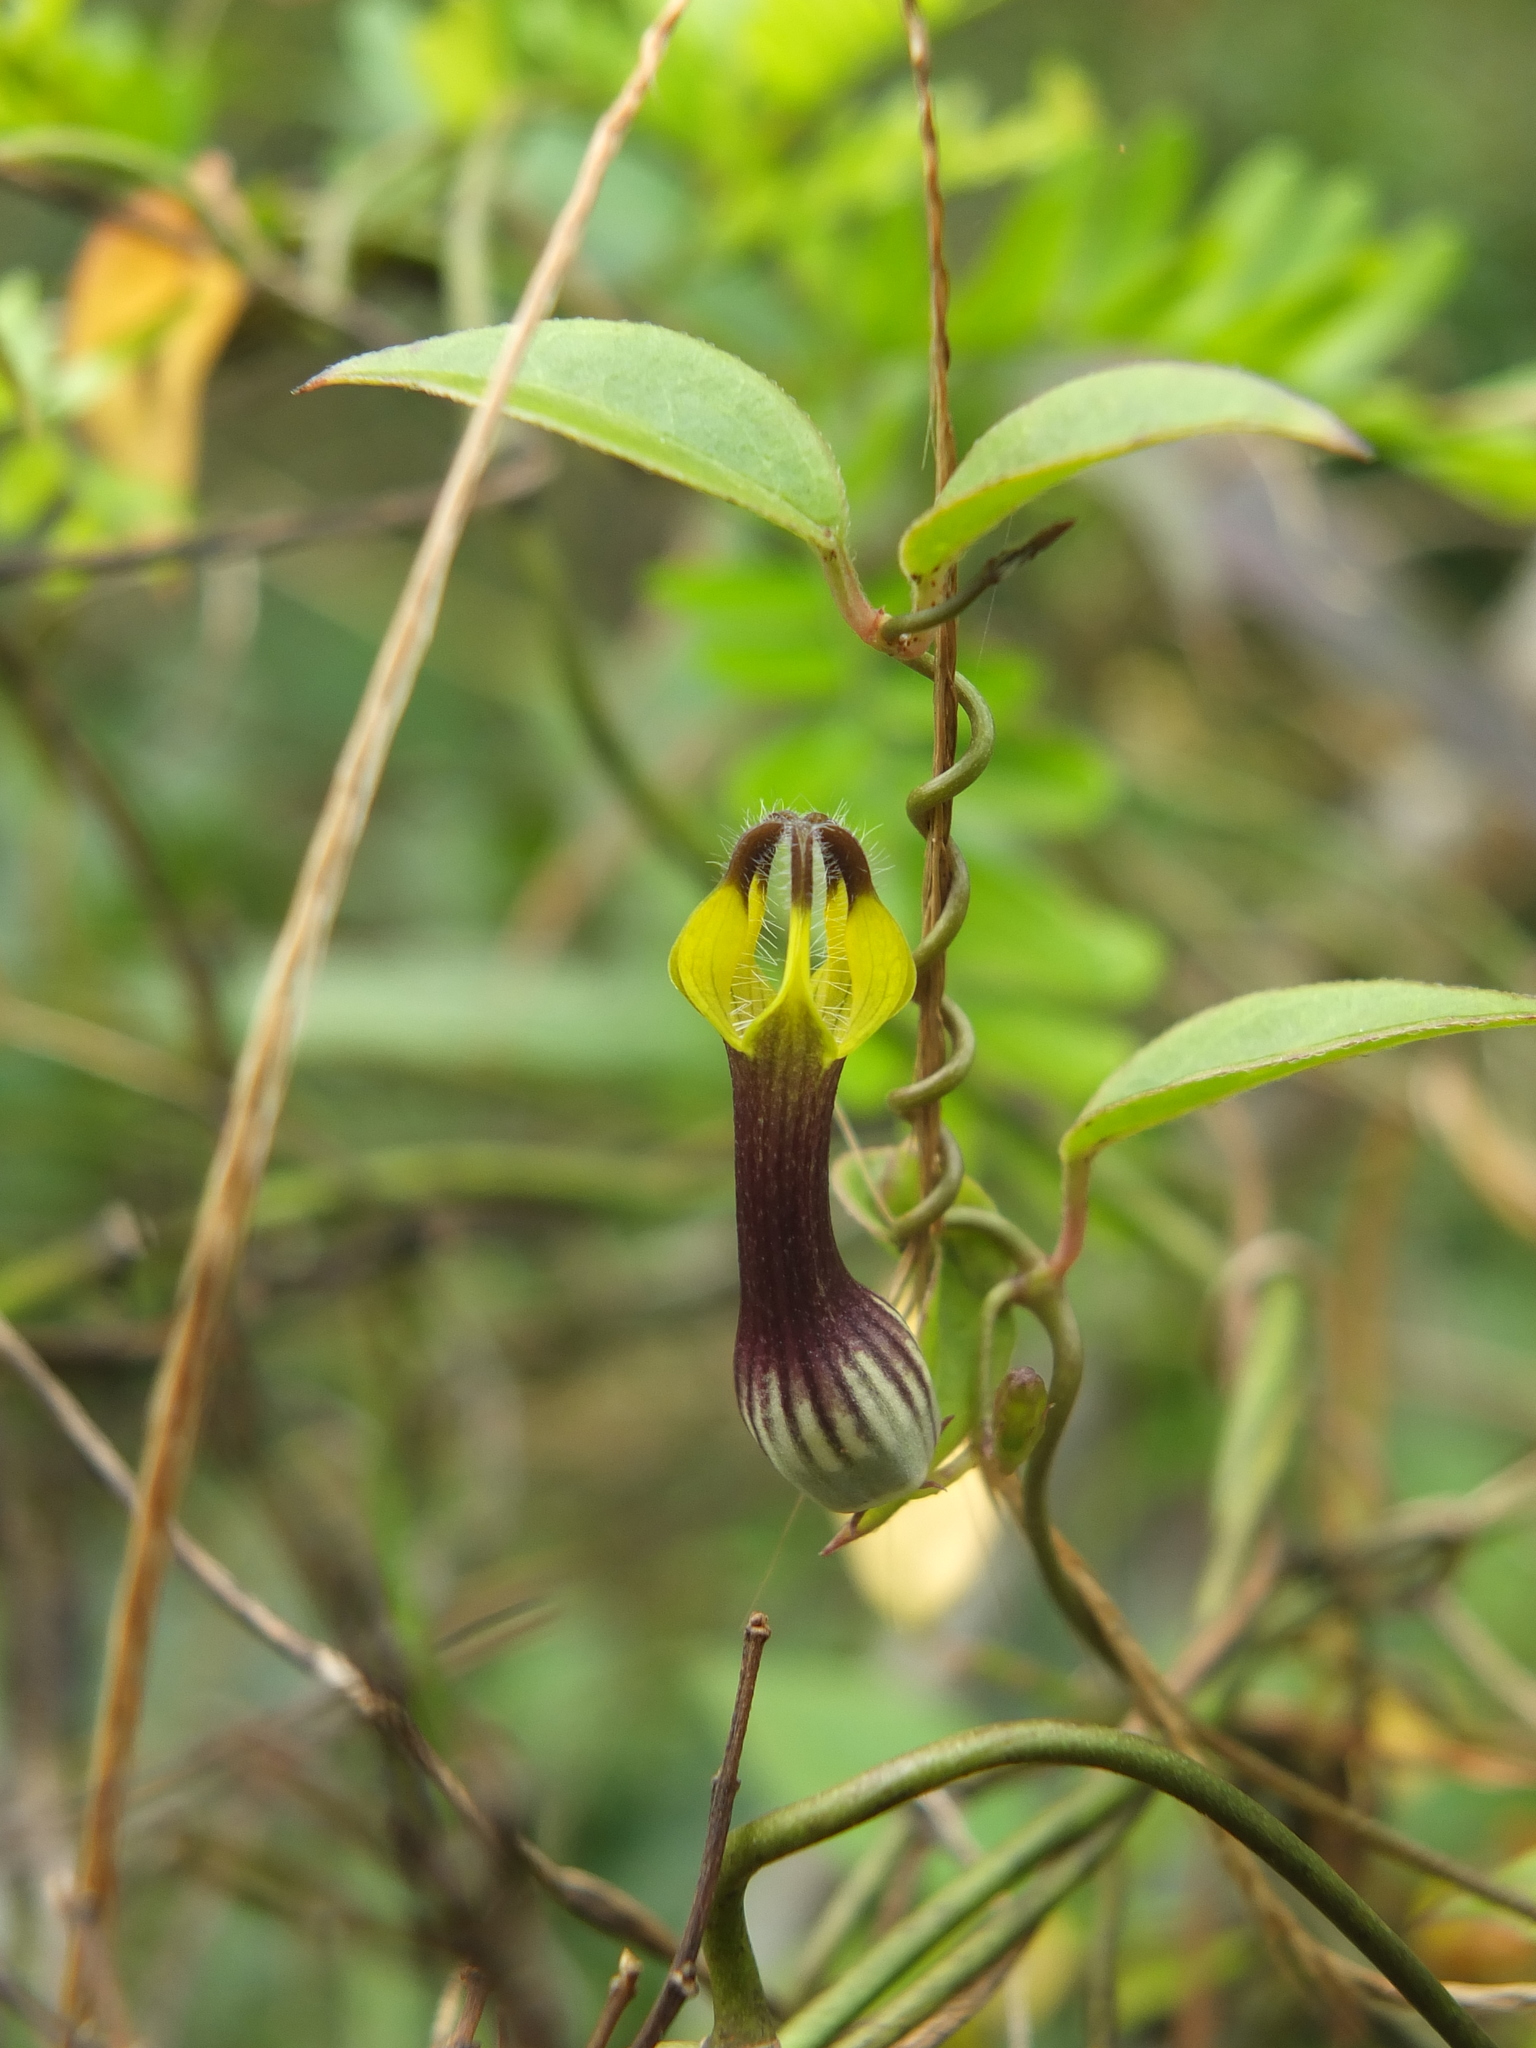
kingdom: Plantae
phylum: Tracheophyta
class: Magnoliopsida
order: Gentianales
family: Apocynaceae
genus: Ceropegia
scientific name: Ceropegia candelabrum
